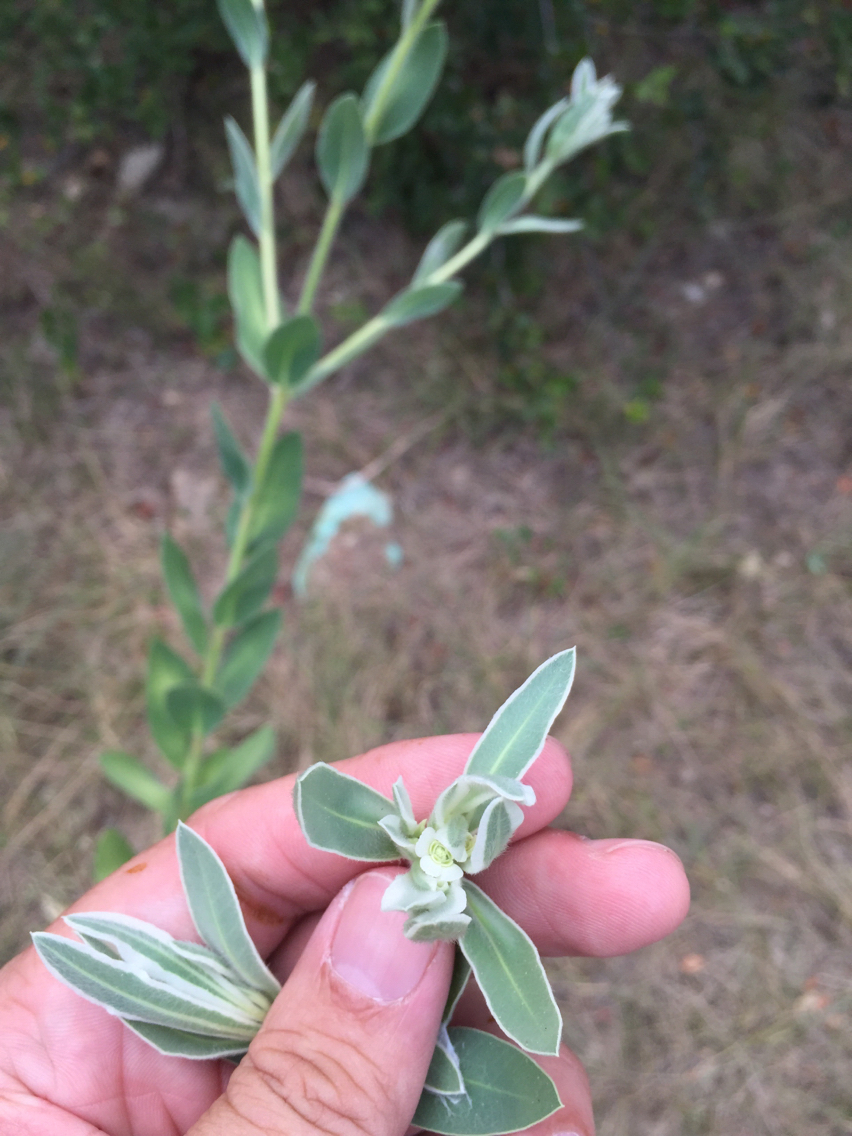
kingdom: Plantae
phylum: Tracheophyta
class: Magnoliopsida
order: Malpighiales
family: Euphorbiaceae
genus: Euphorbia
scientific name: Euphorbia bicolor
